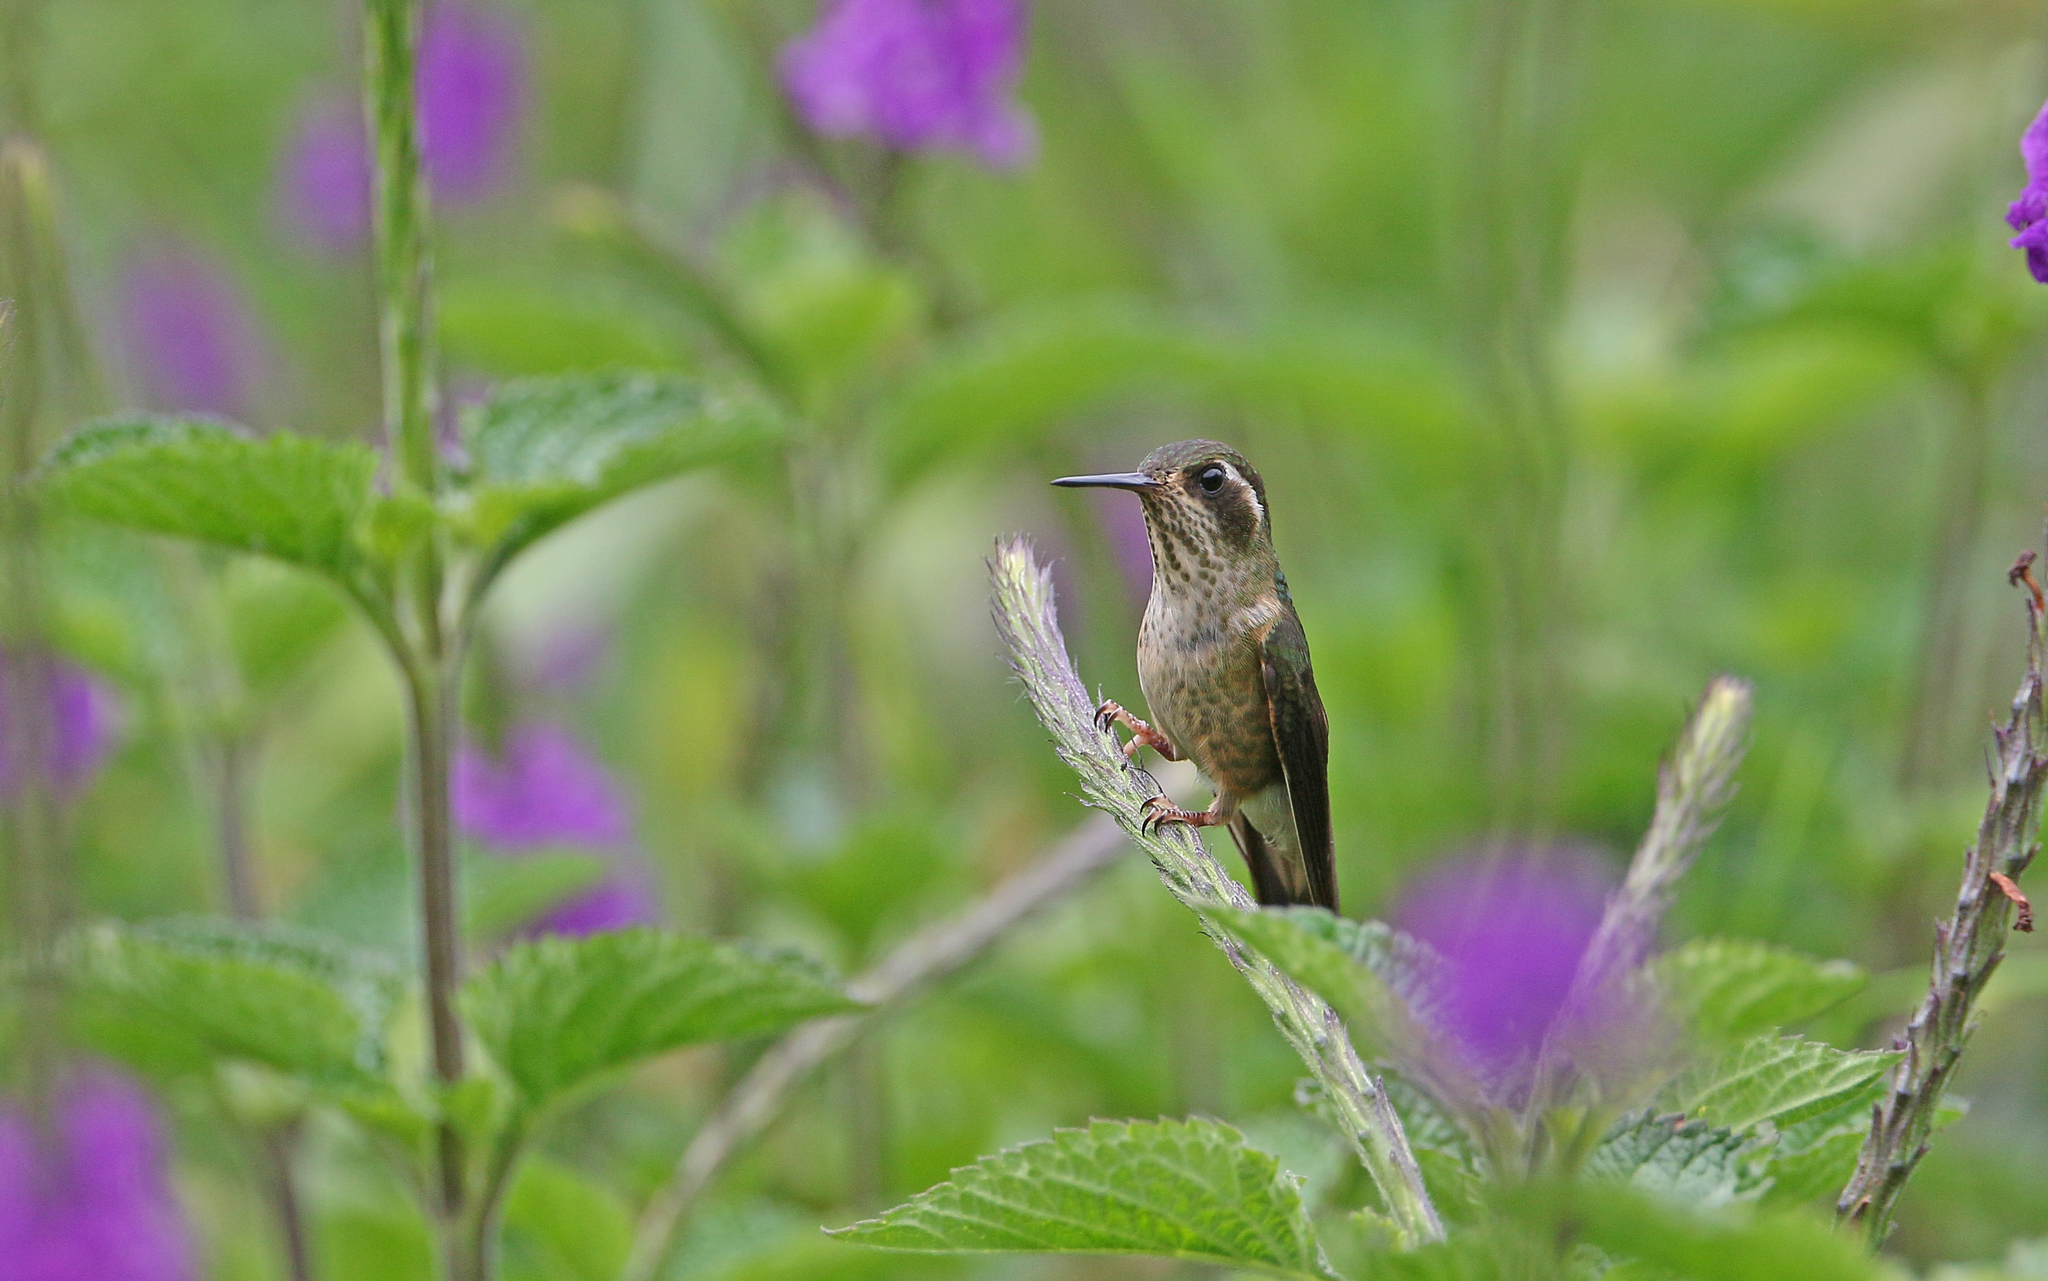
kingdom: Animalia
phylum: Chordata
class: Aves
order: Apodiformes
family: Trochilidae
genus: Adelomyia
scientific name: Adelomyia melanogenys
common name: Speckled hummingbird
